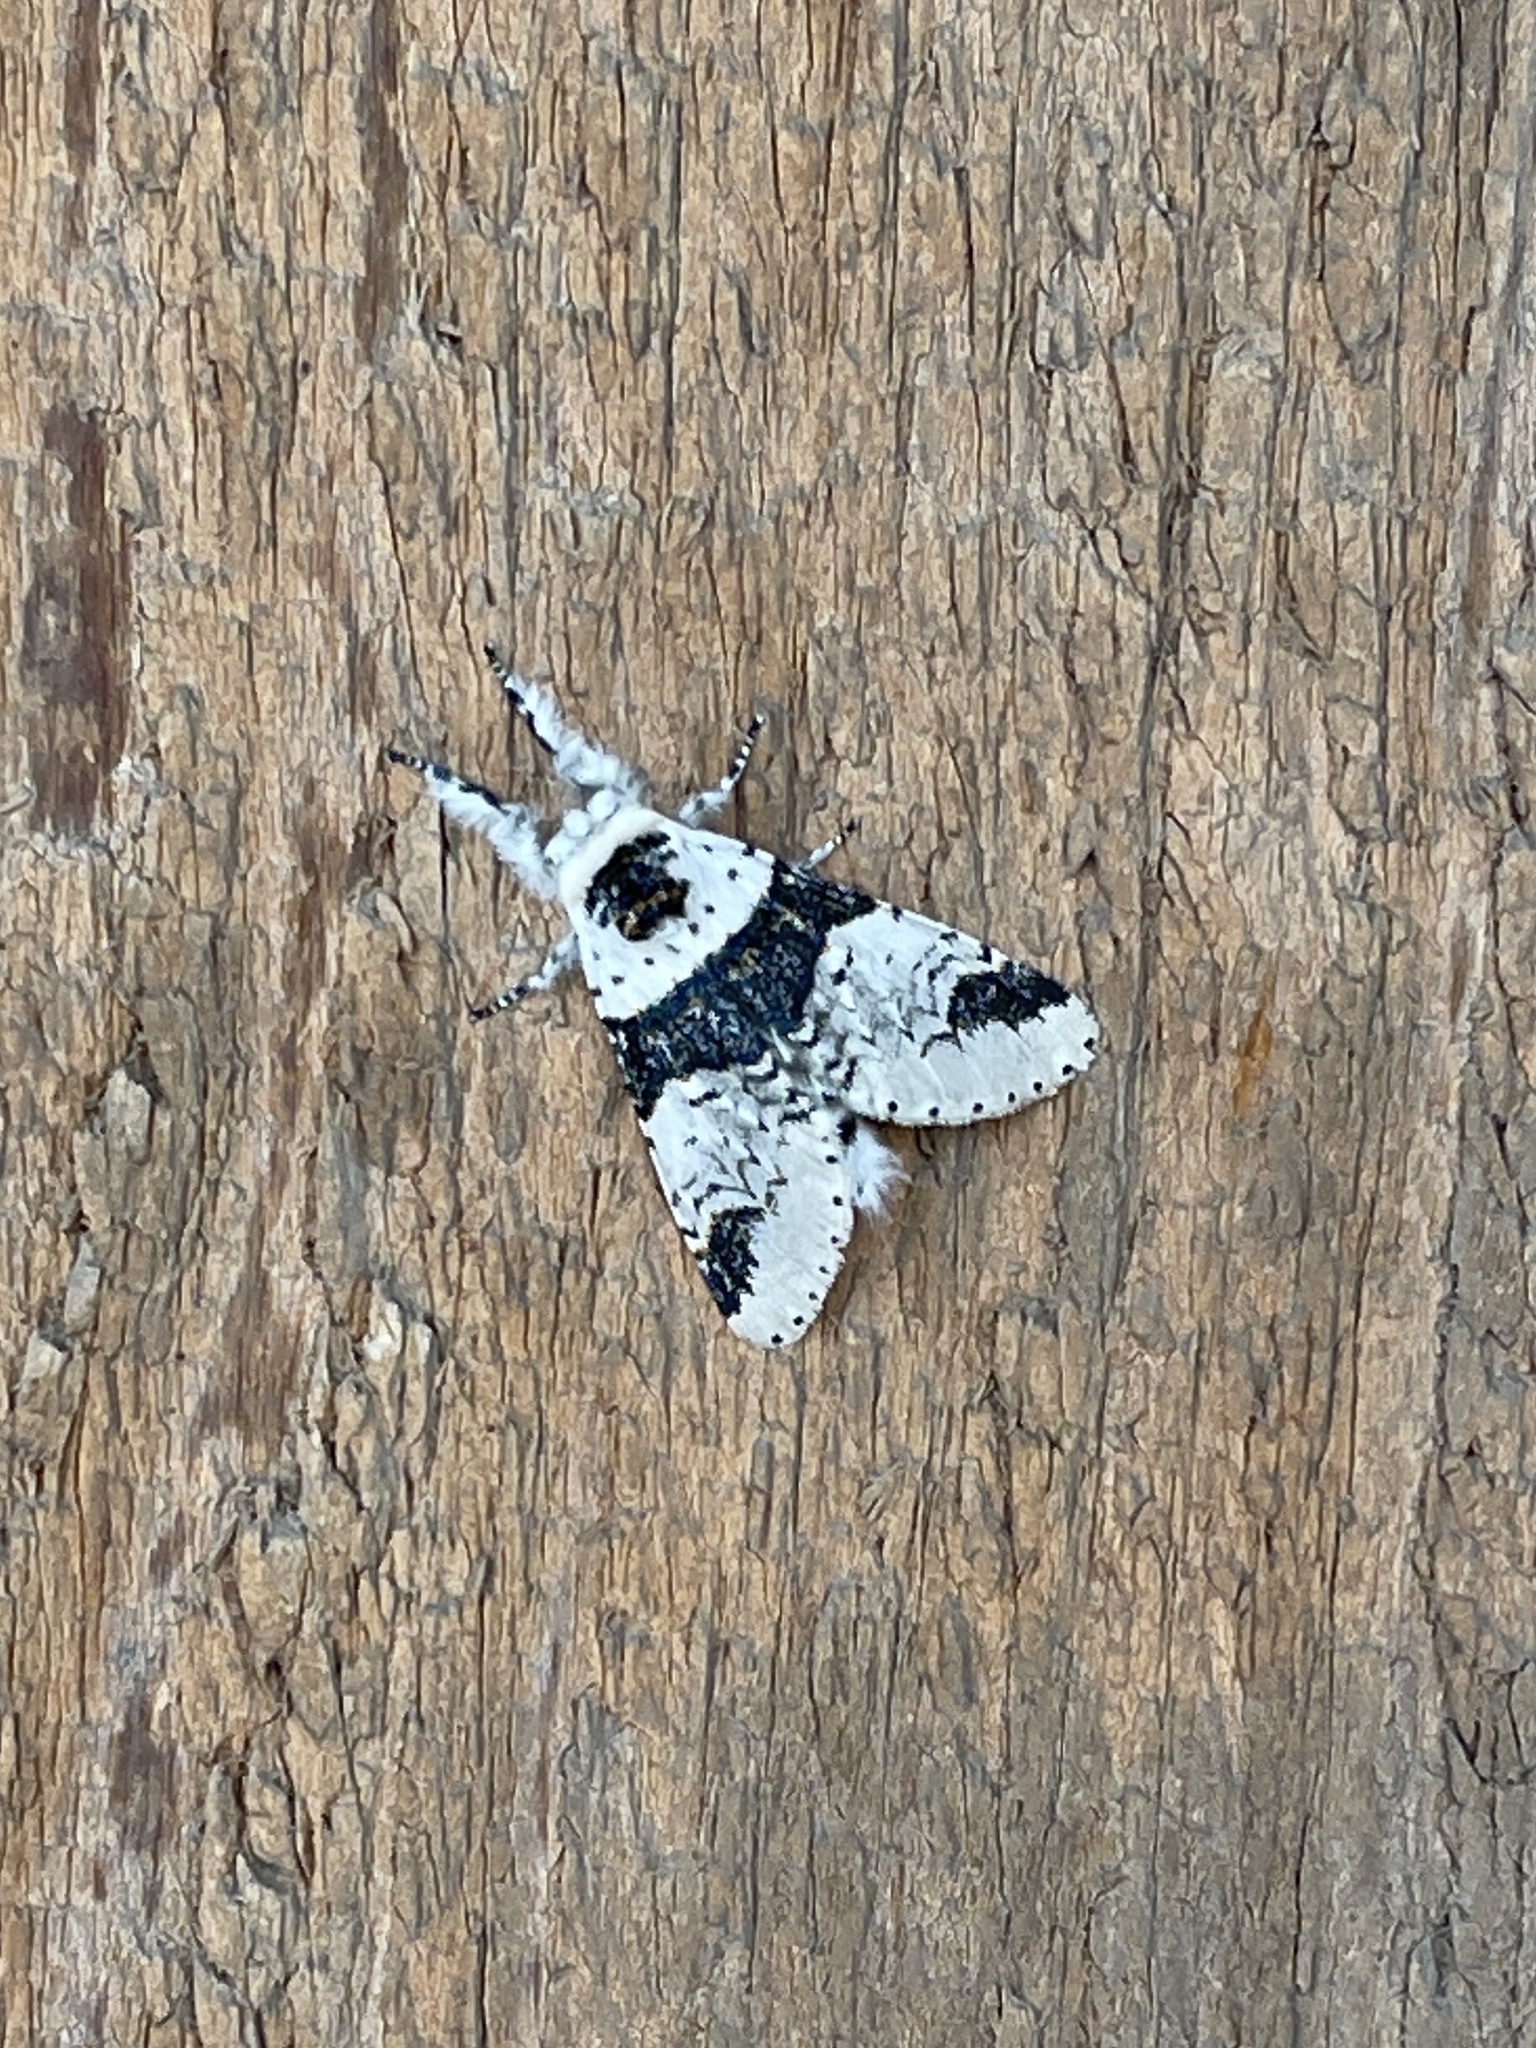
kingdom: Animalia
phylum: Arthropoda
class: Insecta
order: Lepidoptera
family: Notodontidae
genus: Furcula
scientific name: Furcula scolopendrina
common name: Zigzag furcula moth
